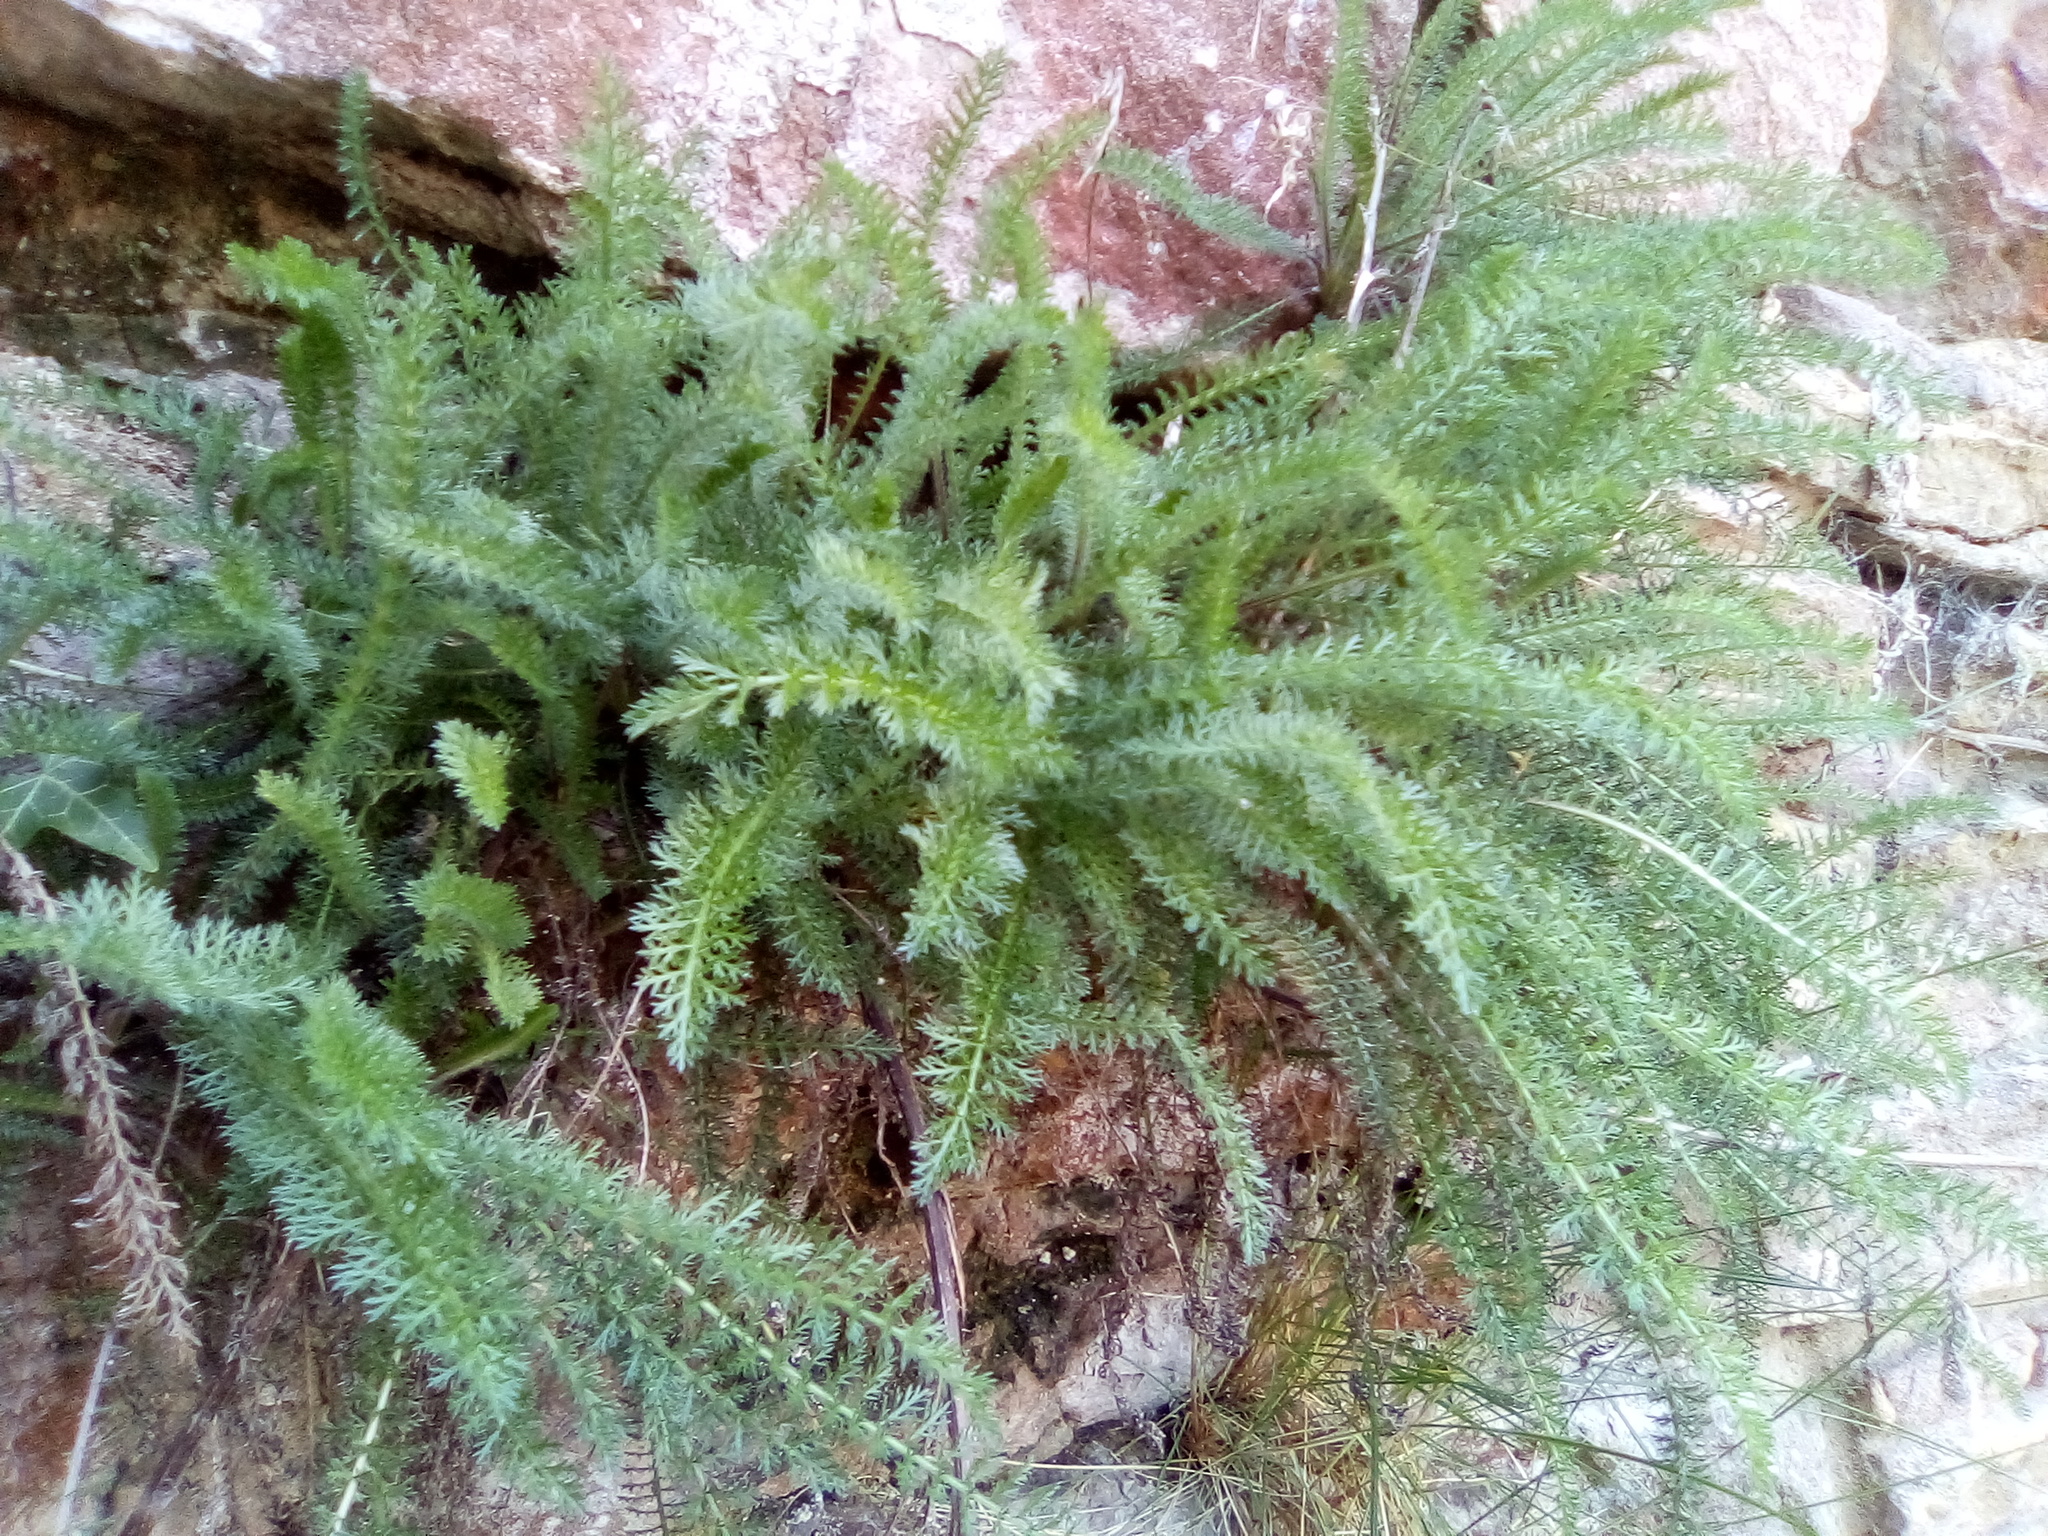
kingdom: Plantae
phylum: Tracheophyta
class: Magnoliopsida
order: Asterales
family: Asteraceae
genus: Achillea
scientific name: Achillea millefolium
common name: Yarrow
